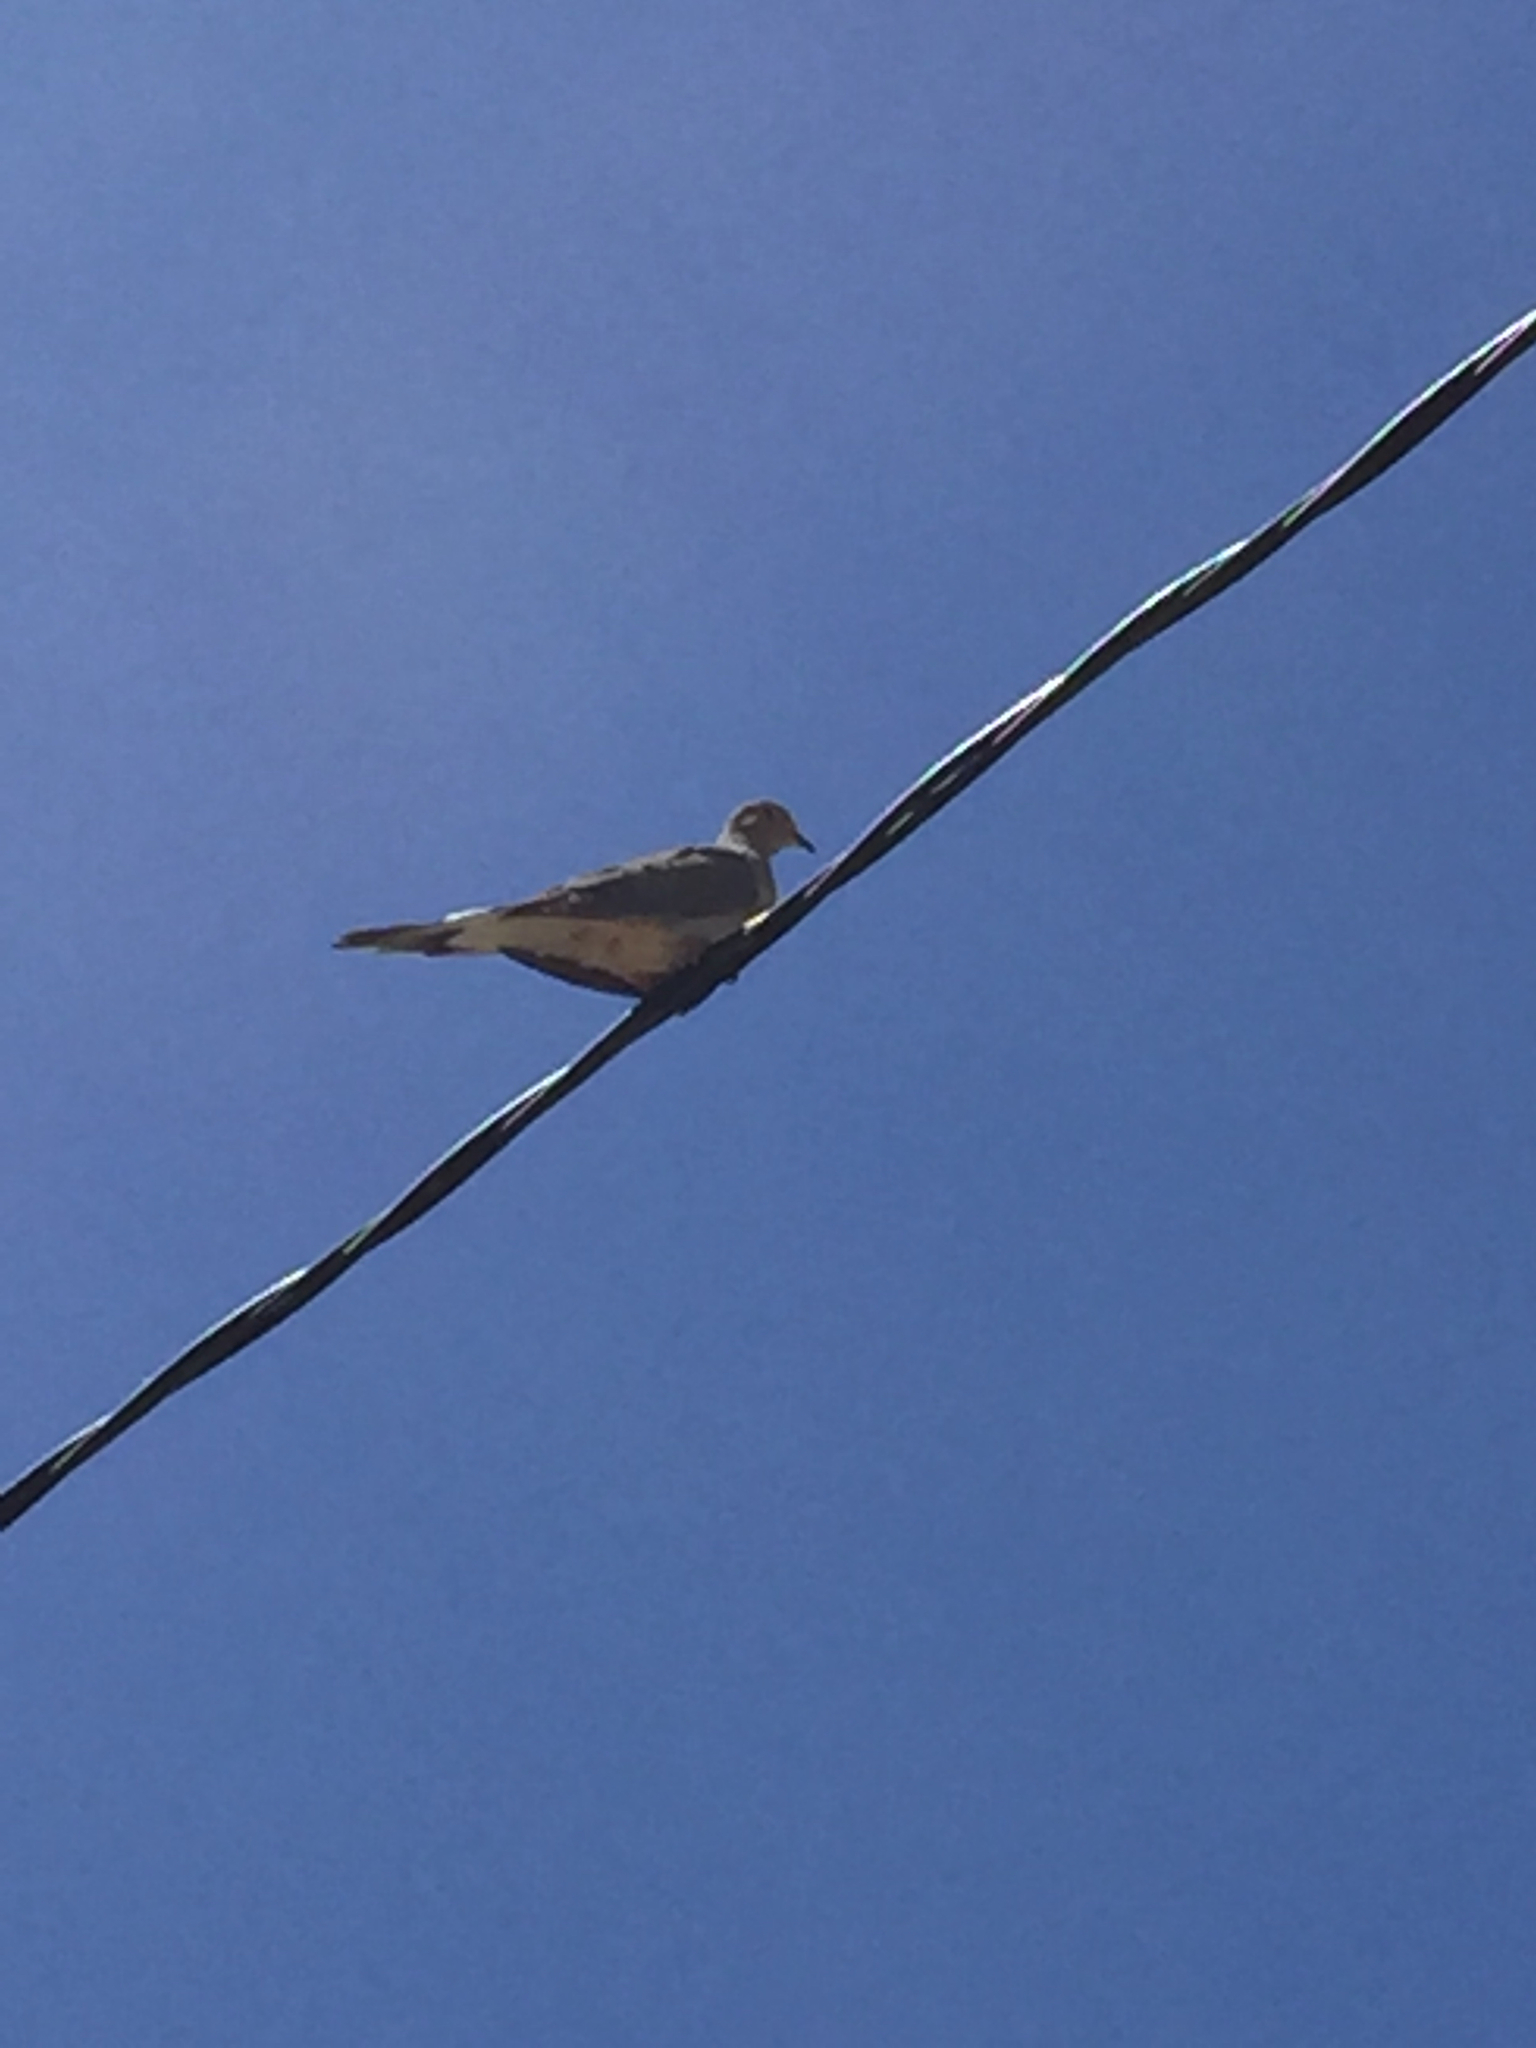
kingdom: Animalia
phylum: Chordata
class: Aves
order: Columbiformes
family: Columbidae
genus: Zenaida
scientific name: Zenaida macroura
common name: Mourning dove
